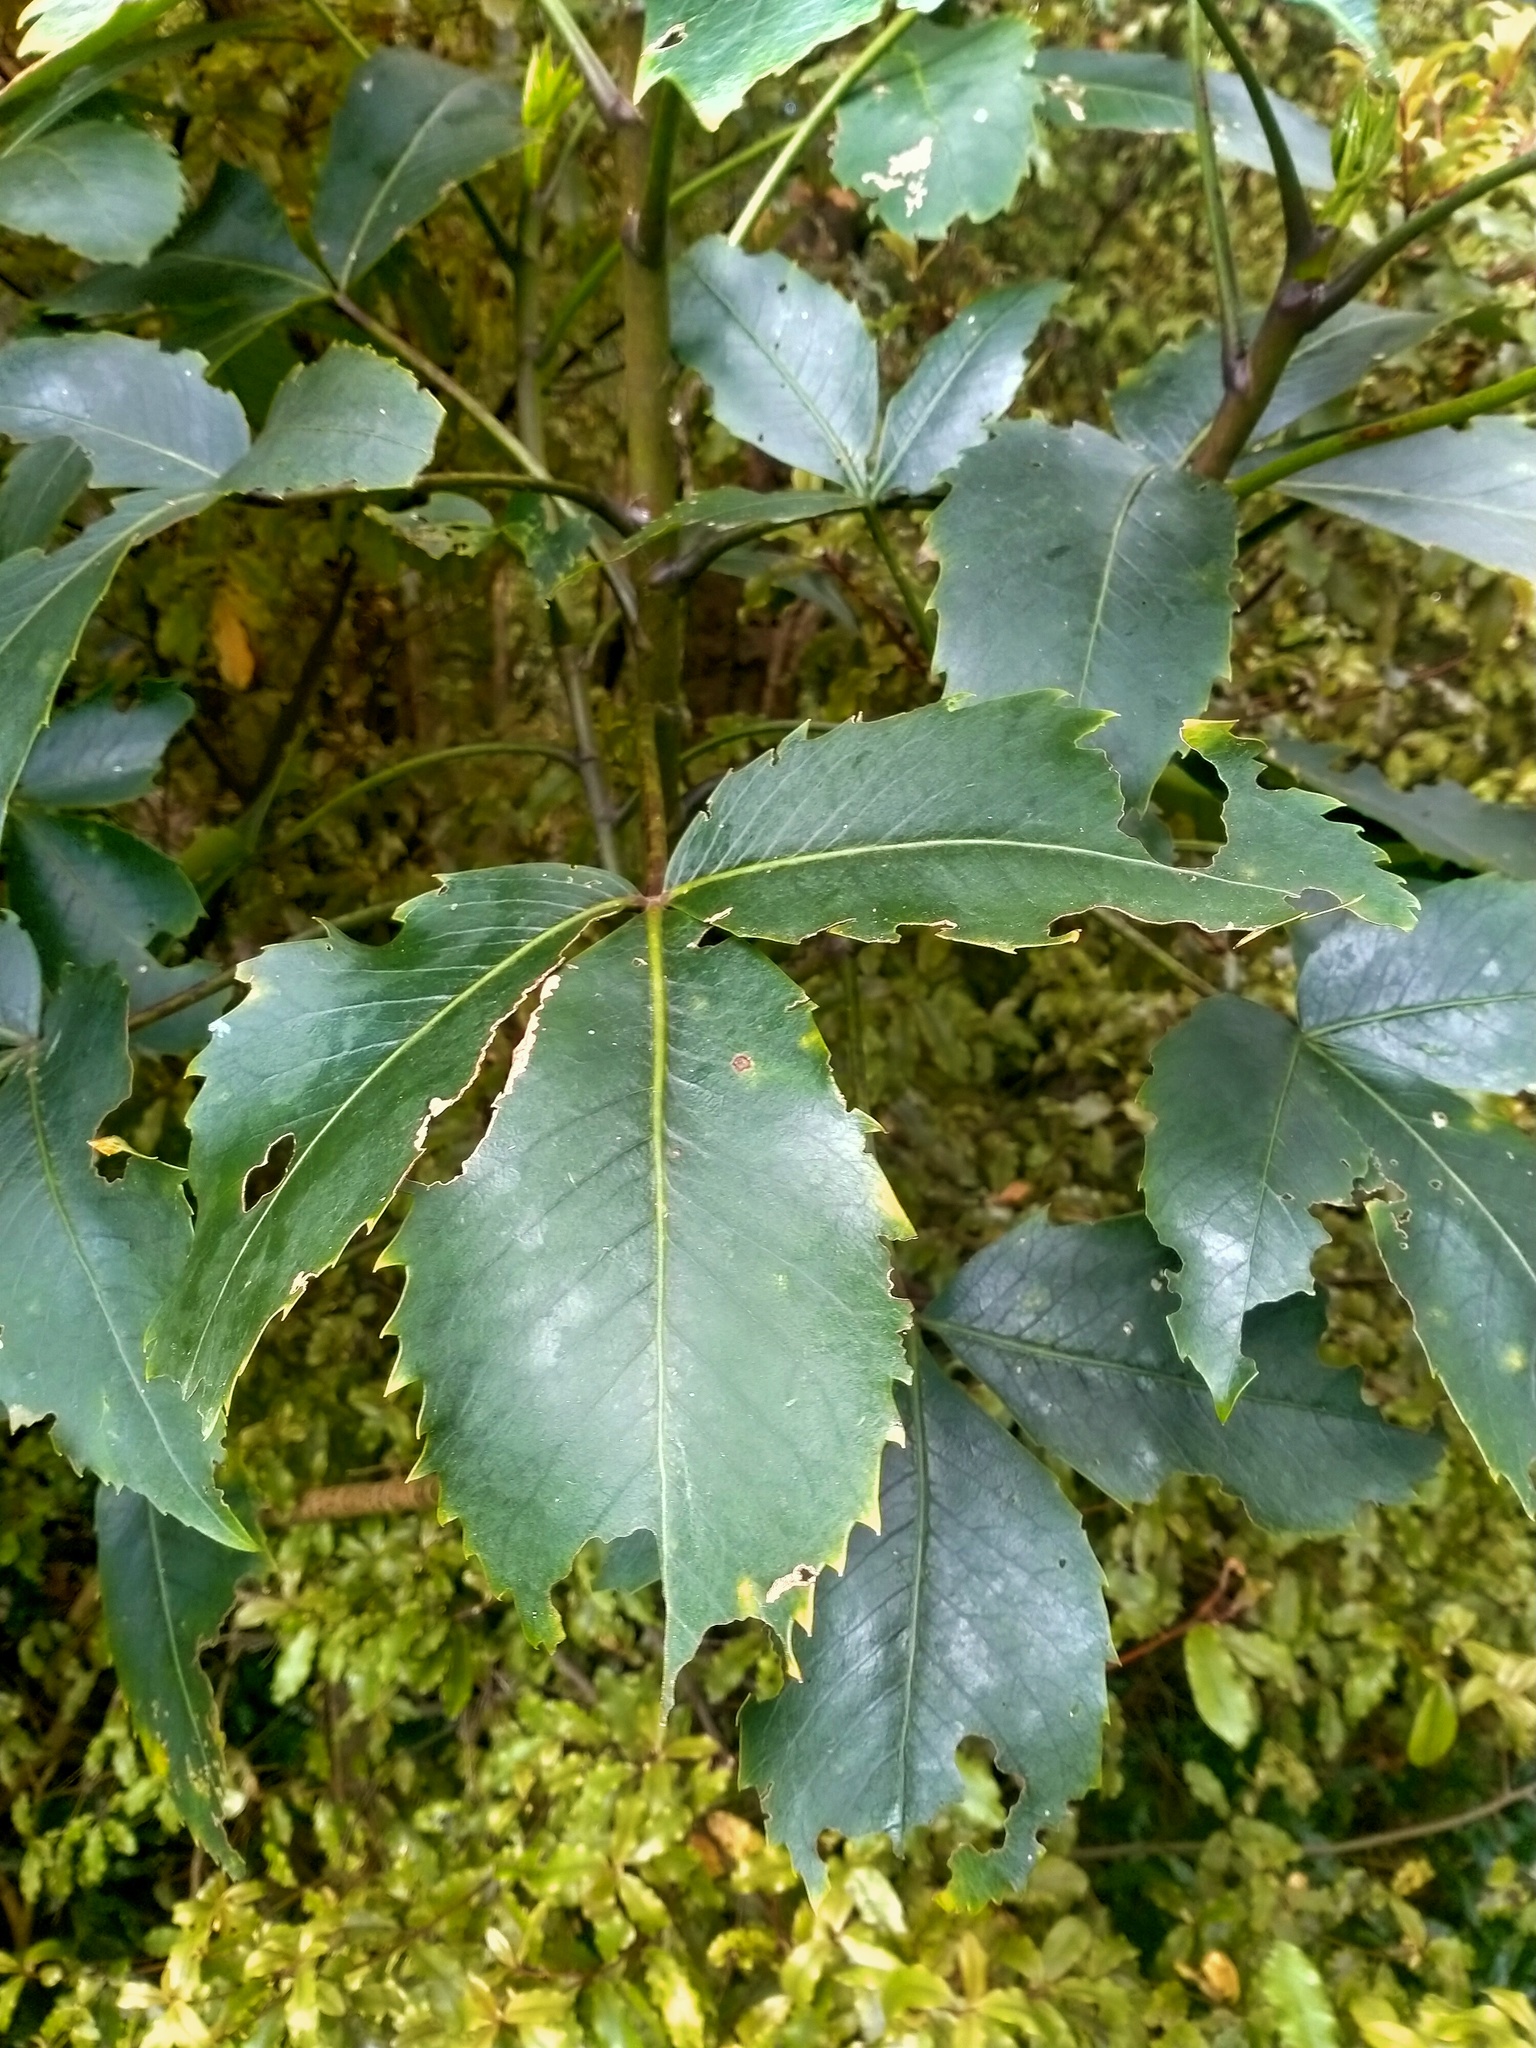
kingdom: Plantae
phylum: Tracheophyta
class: Magnoliopsida
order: Apiales
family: Araliaceae
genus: Neopanax
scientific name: Neopanax colensoi
